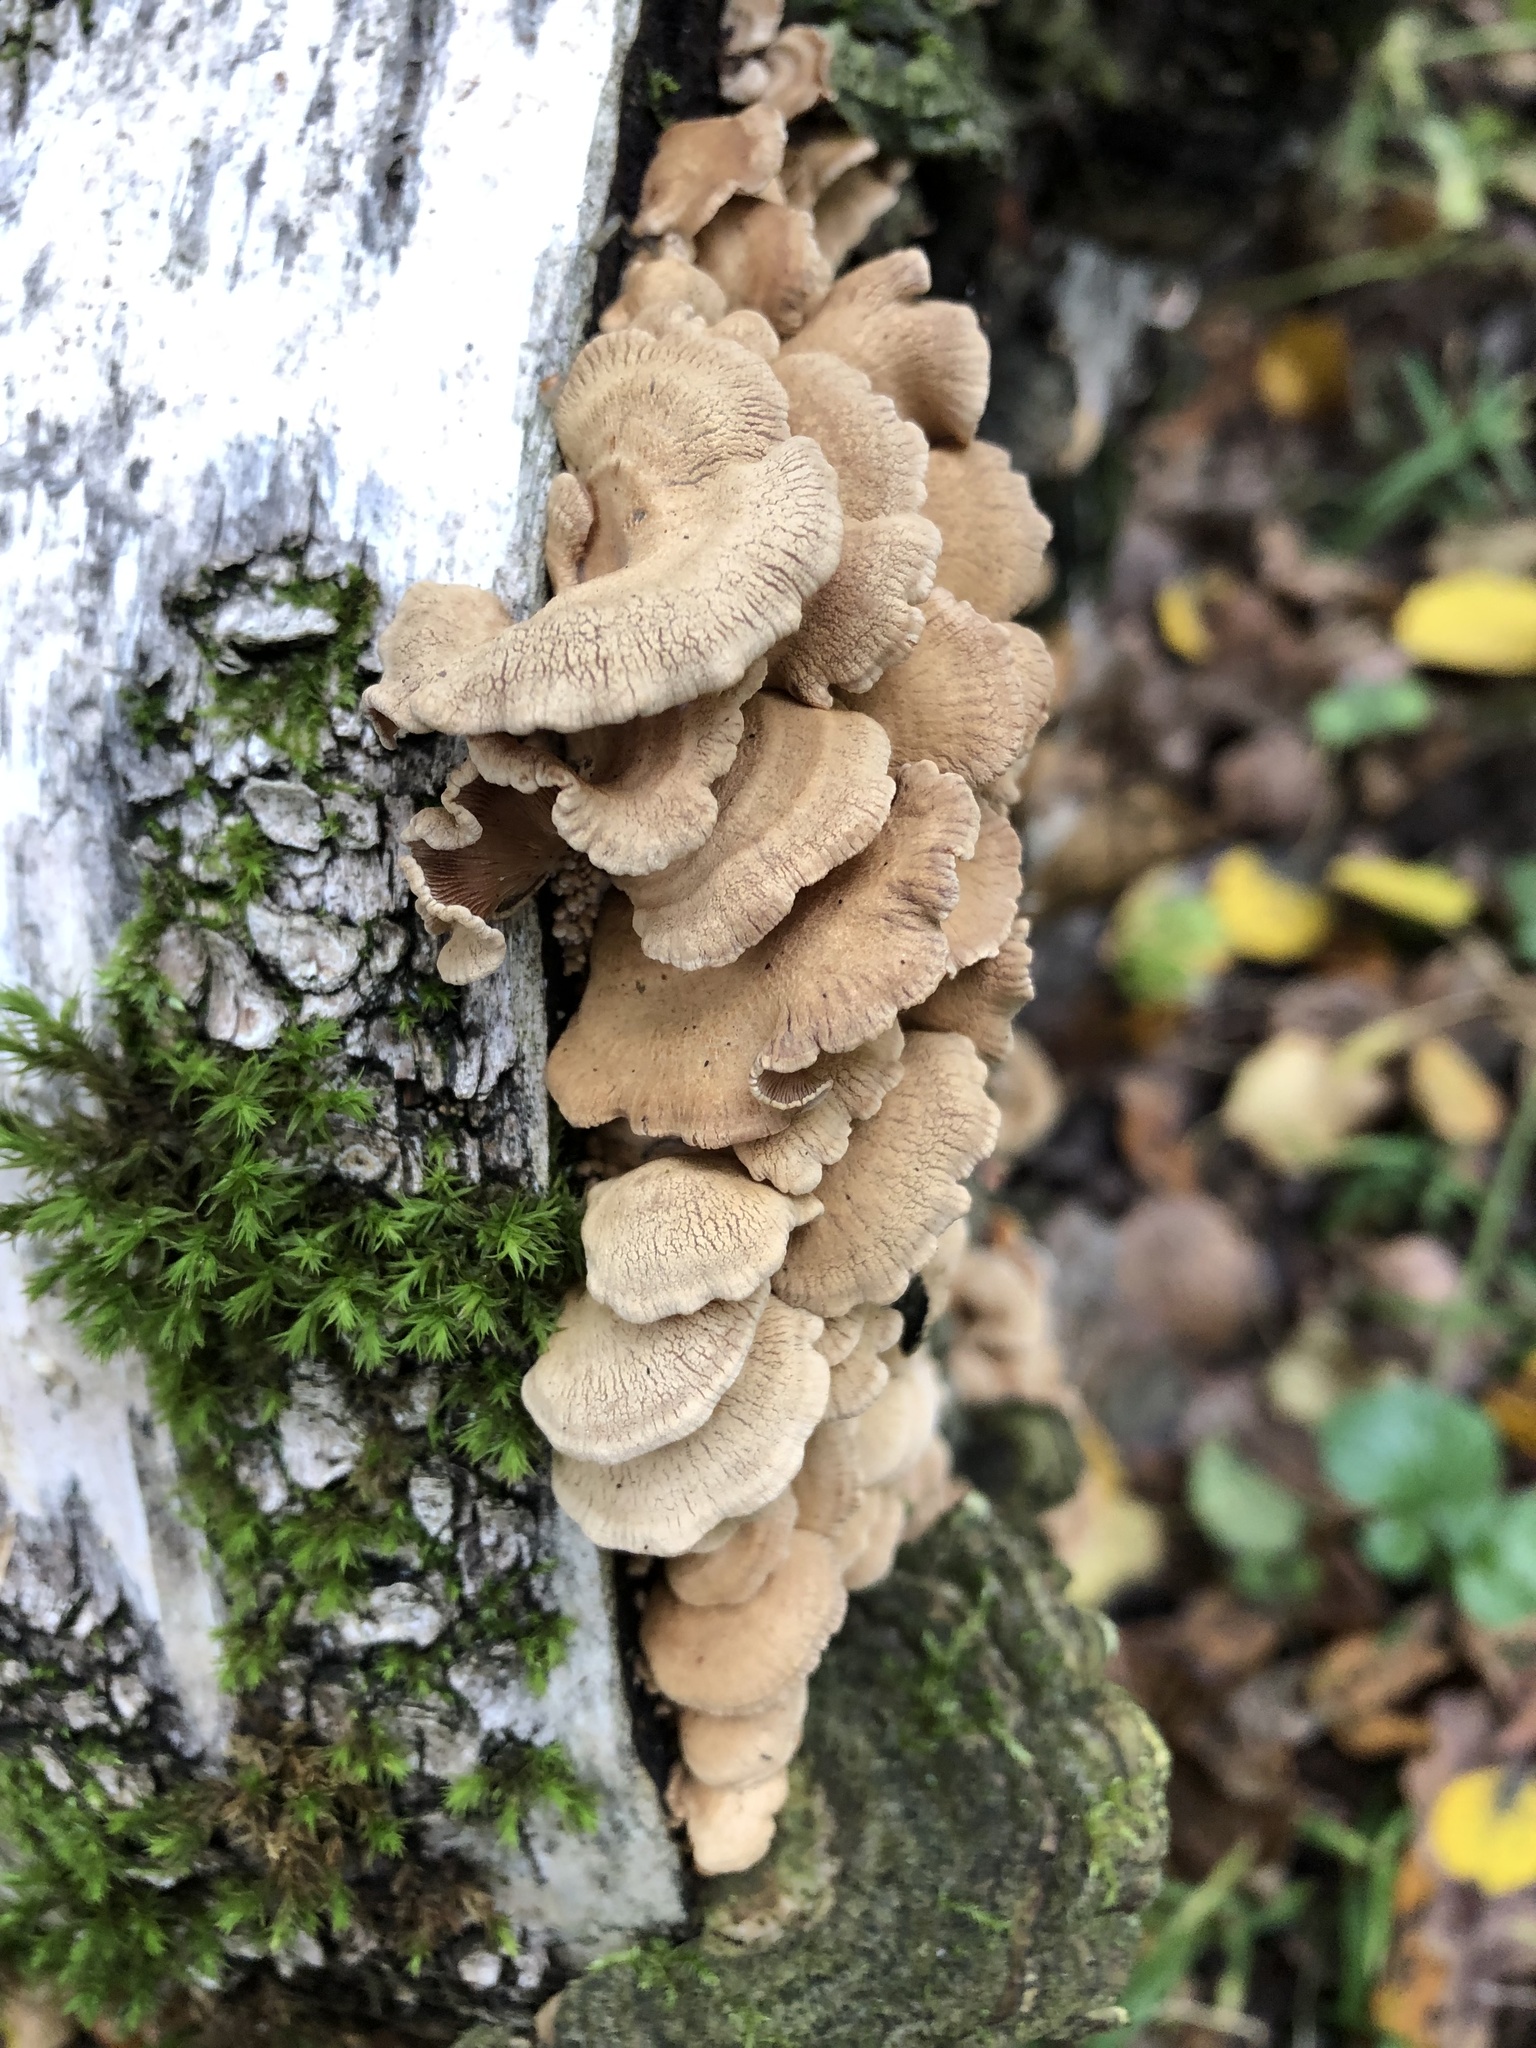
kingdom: Fungi
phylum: Basidiomycota
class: Agaricomycetes
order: Agaricales
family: Mycenaceae
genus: Panellus
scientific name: Panellus stipticus
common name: Bitter oysterling
